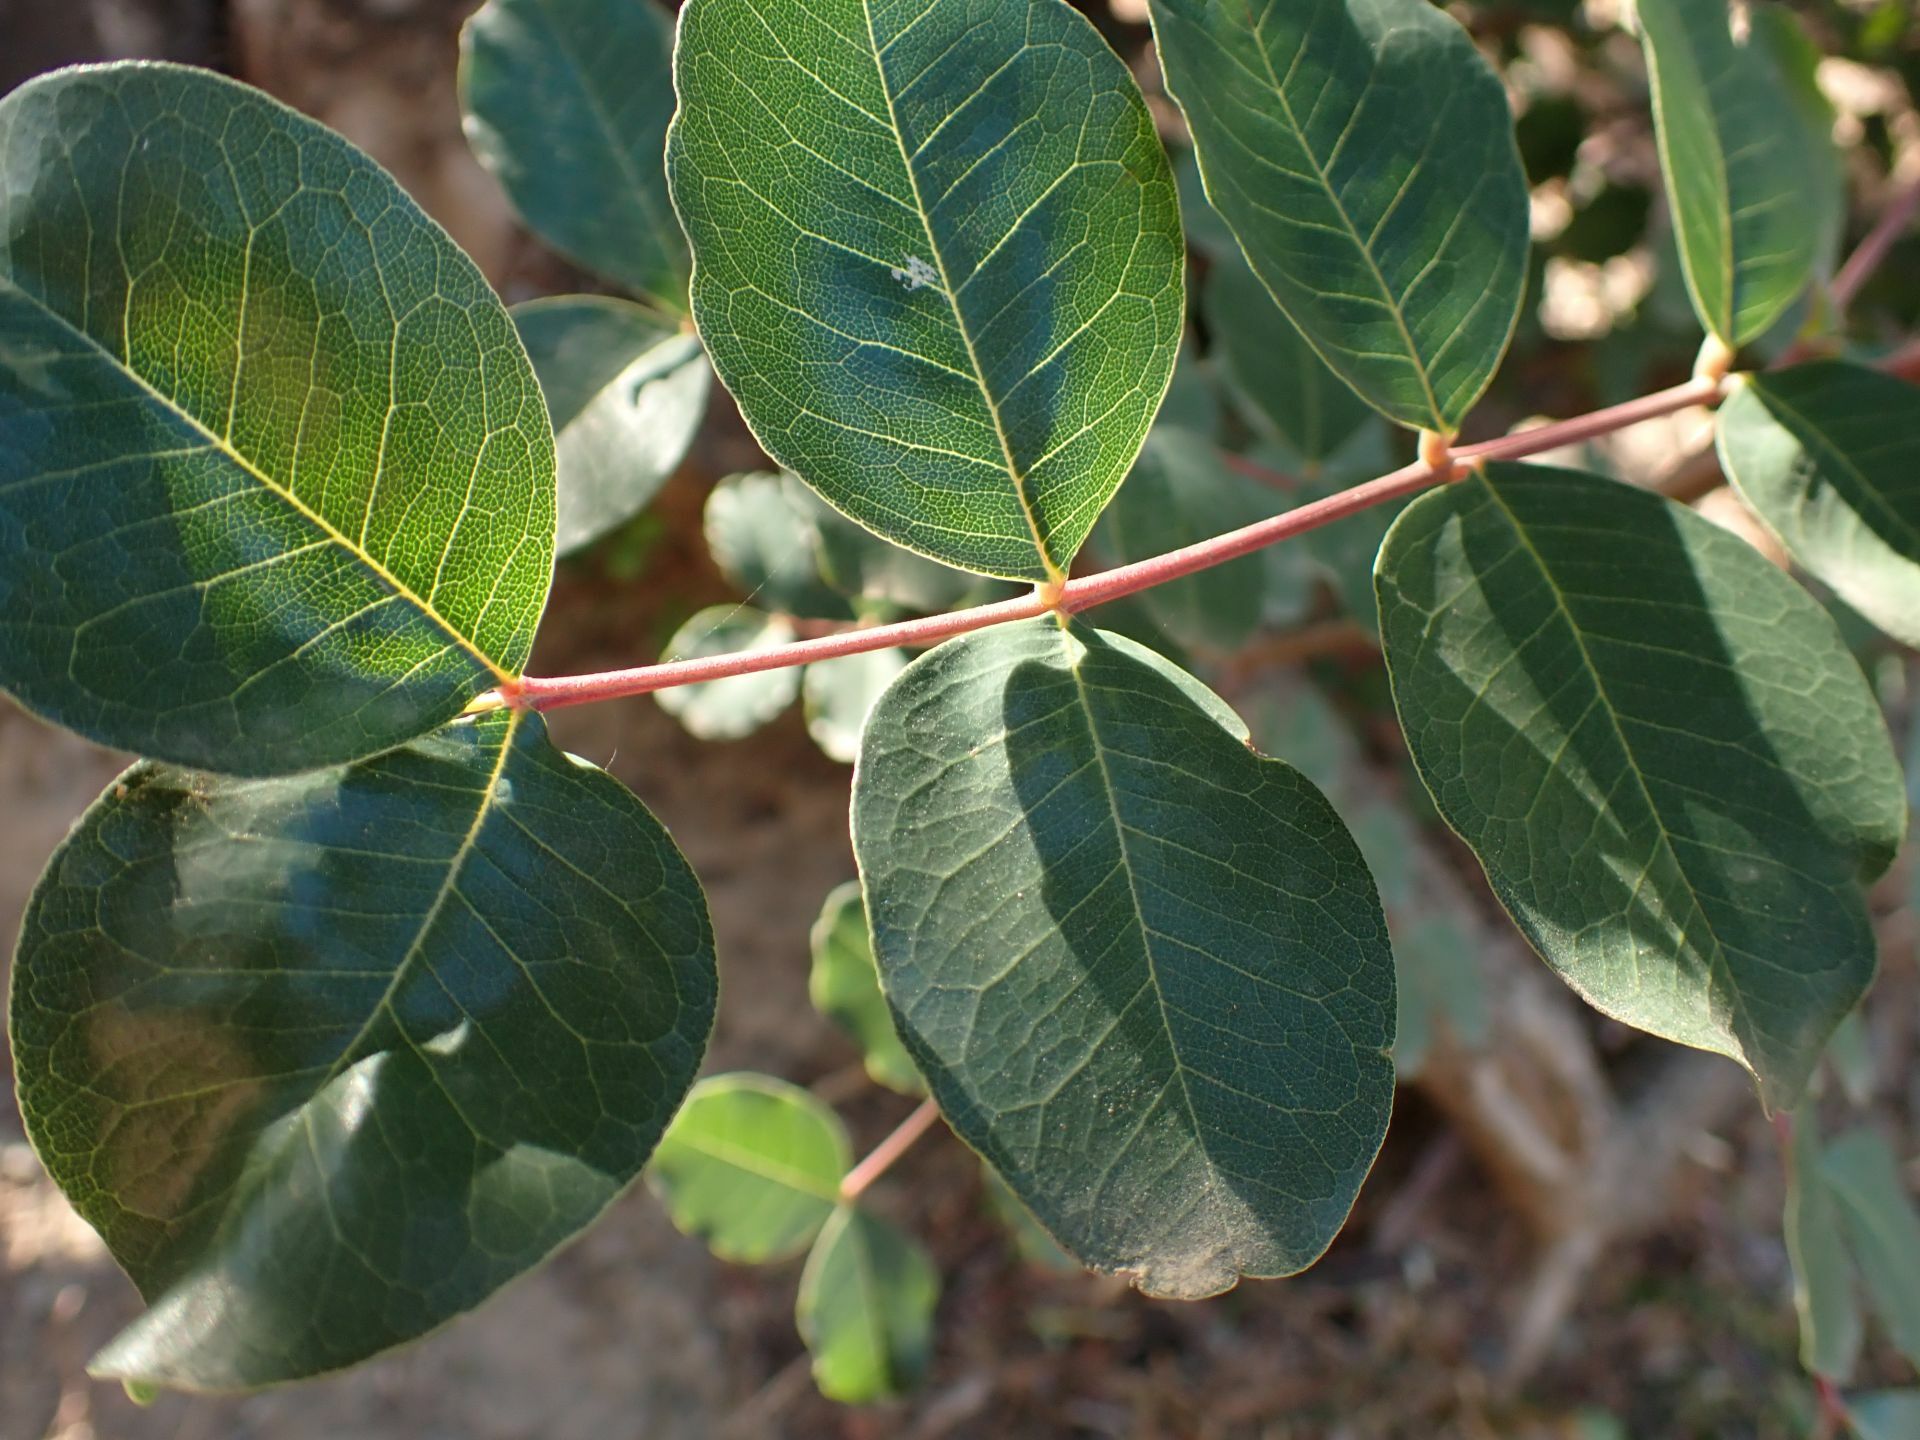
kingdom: Plantae
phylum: Tracheophyta
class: Magnoliopsida
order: Fabales
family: Fabaceae
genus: Ceratonia
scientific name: Ceratonia siliqua
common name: Carob
